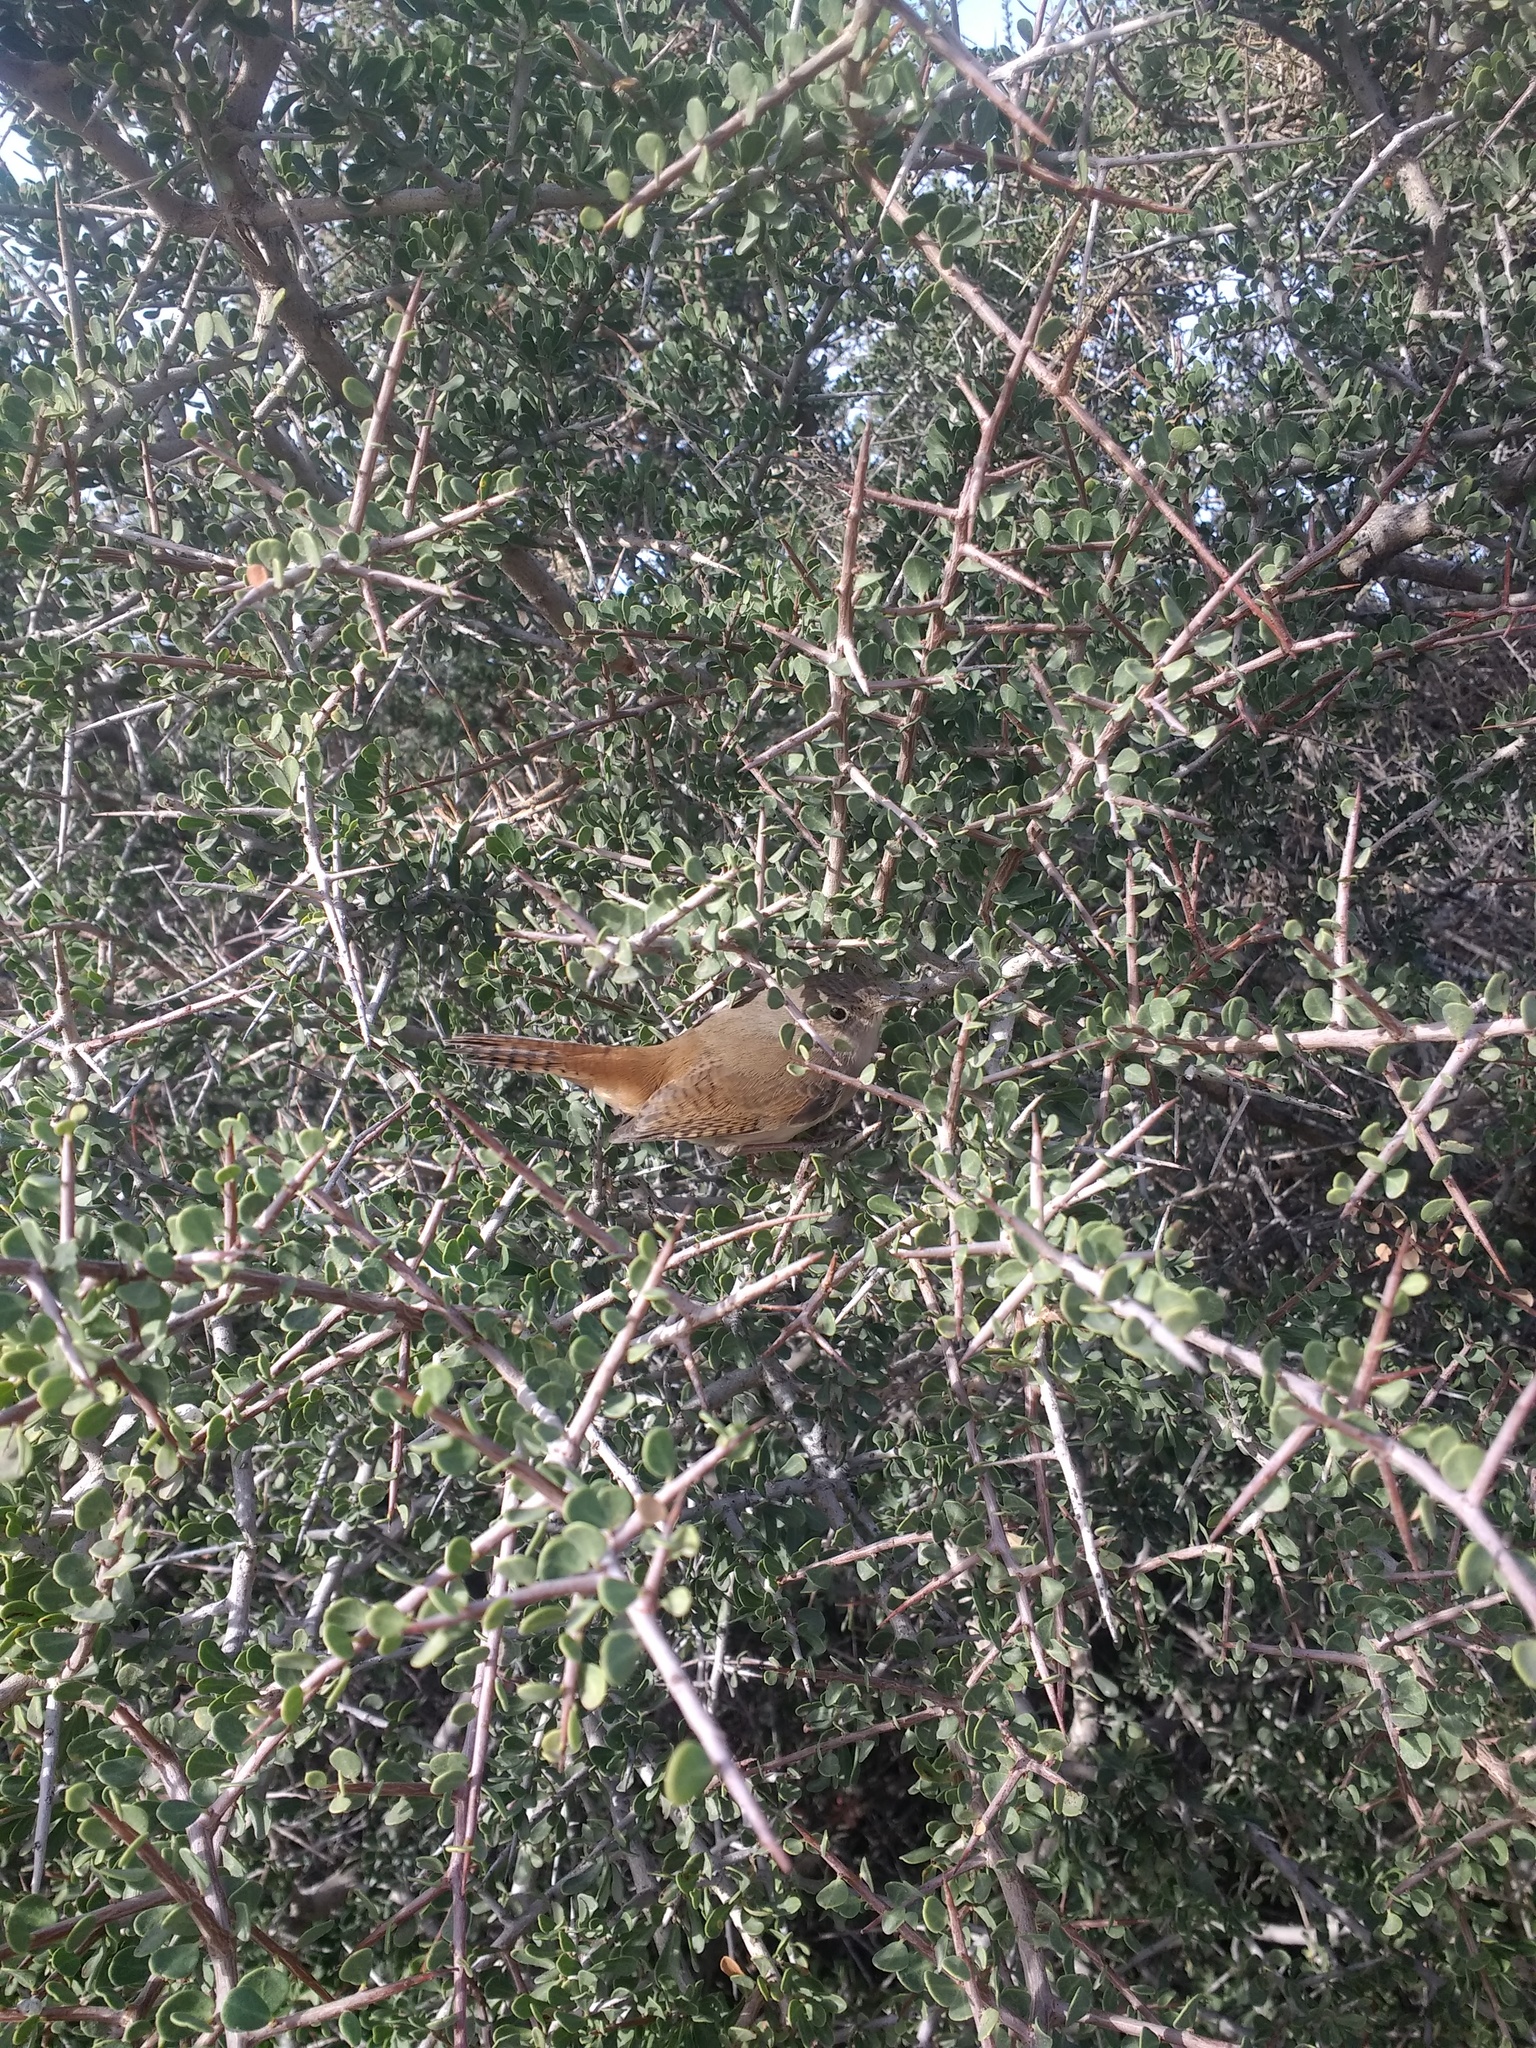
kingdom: Animalia
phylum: Chordata
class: Aves
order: Passeriformes
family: Troglodytidae
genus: Troglodytes
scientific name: Troglodytes aedon
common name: House wren
